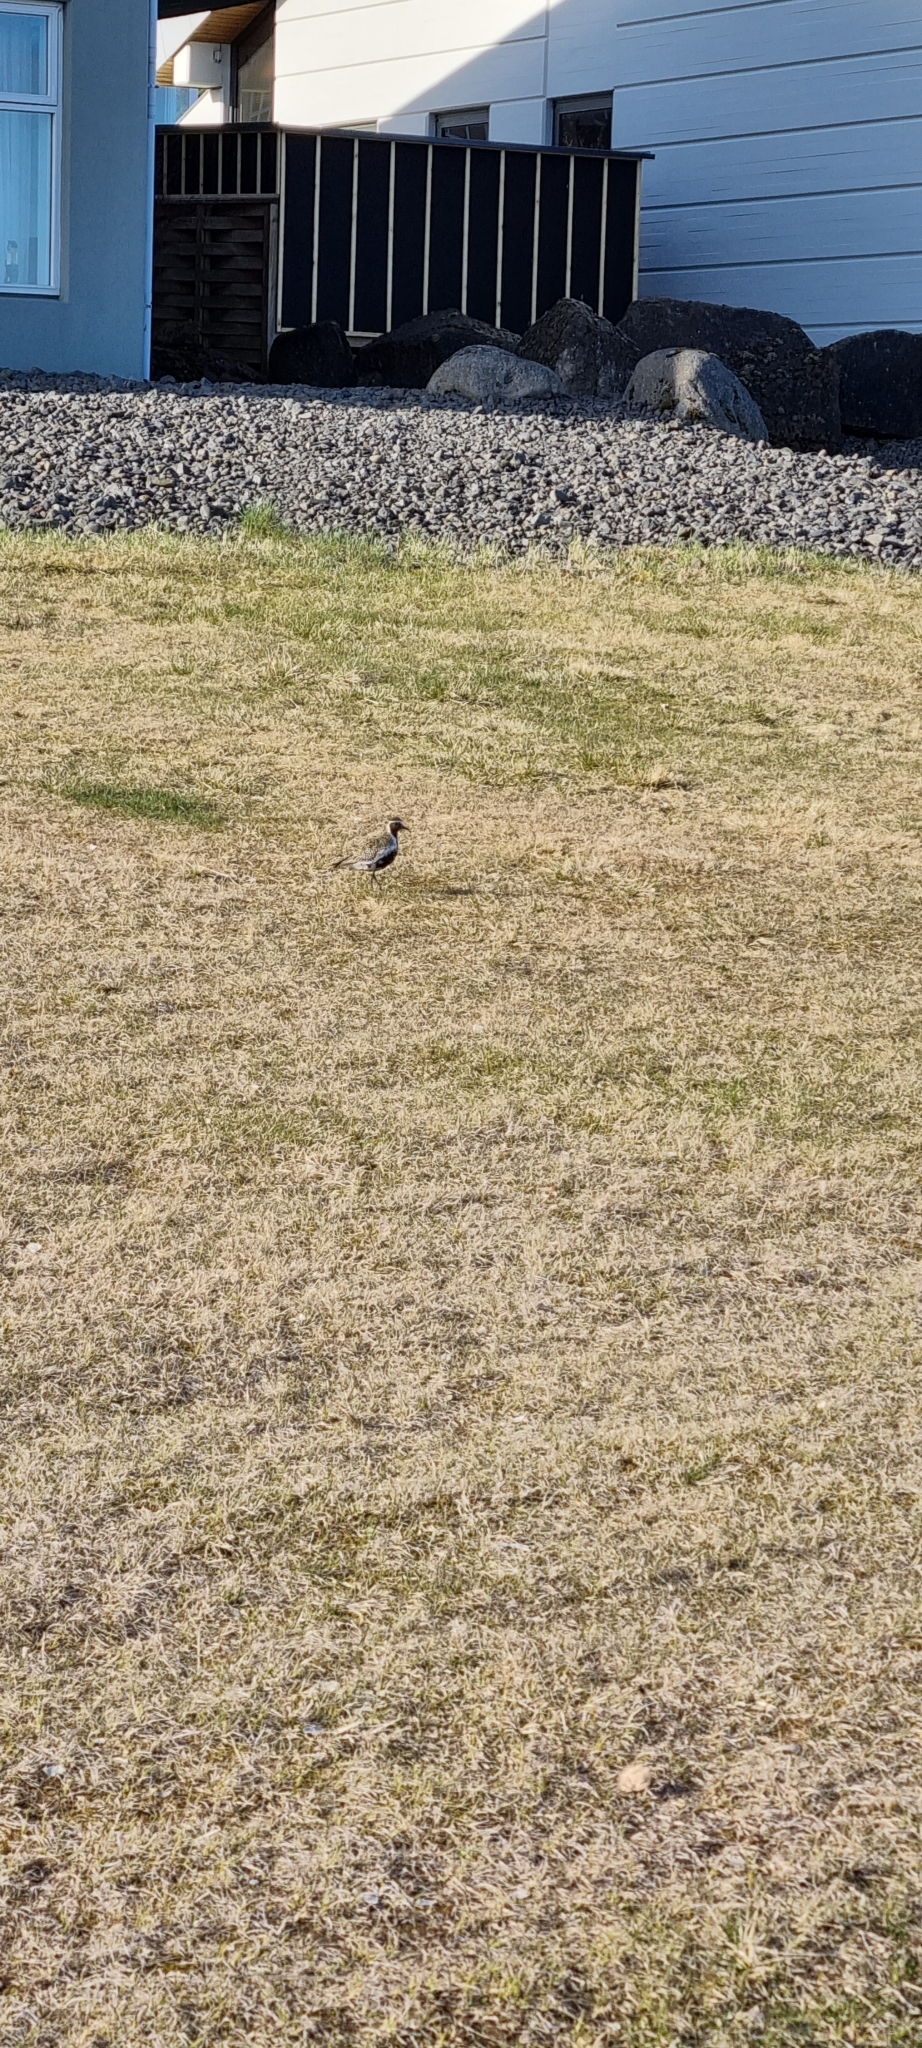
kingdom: Animalia
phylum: Chordata
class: Aves
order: Charadriiformes
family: Charadriidae
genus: Pluvialis
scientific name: Pluvialis apricaria
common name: European golden plover
